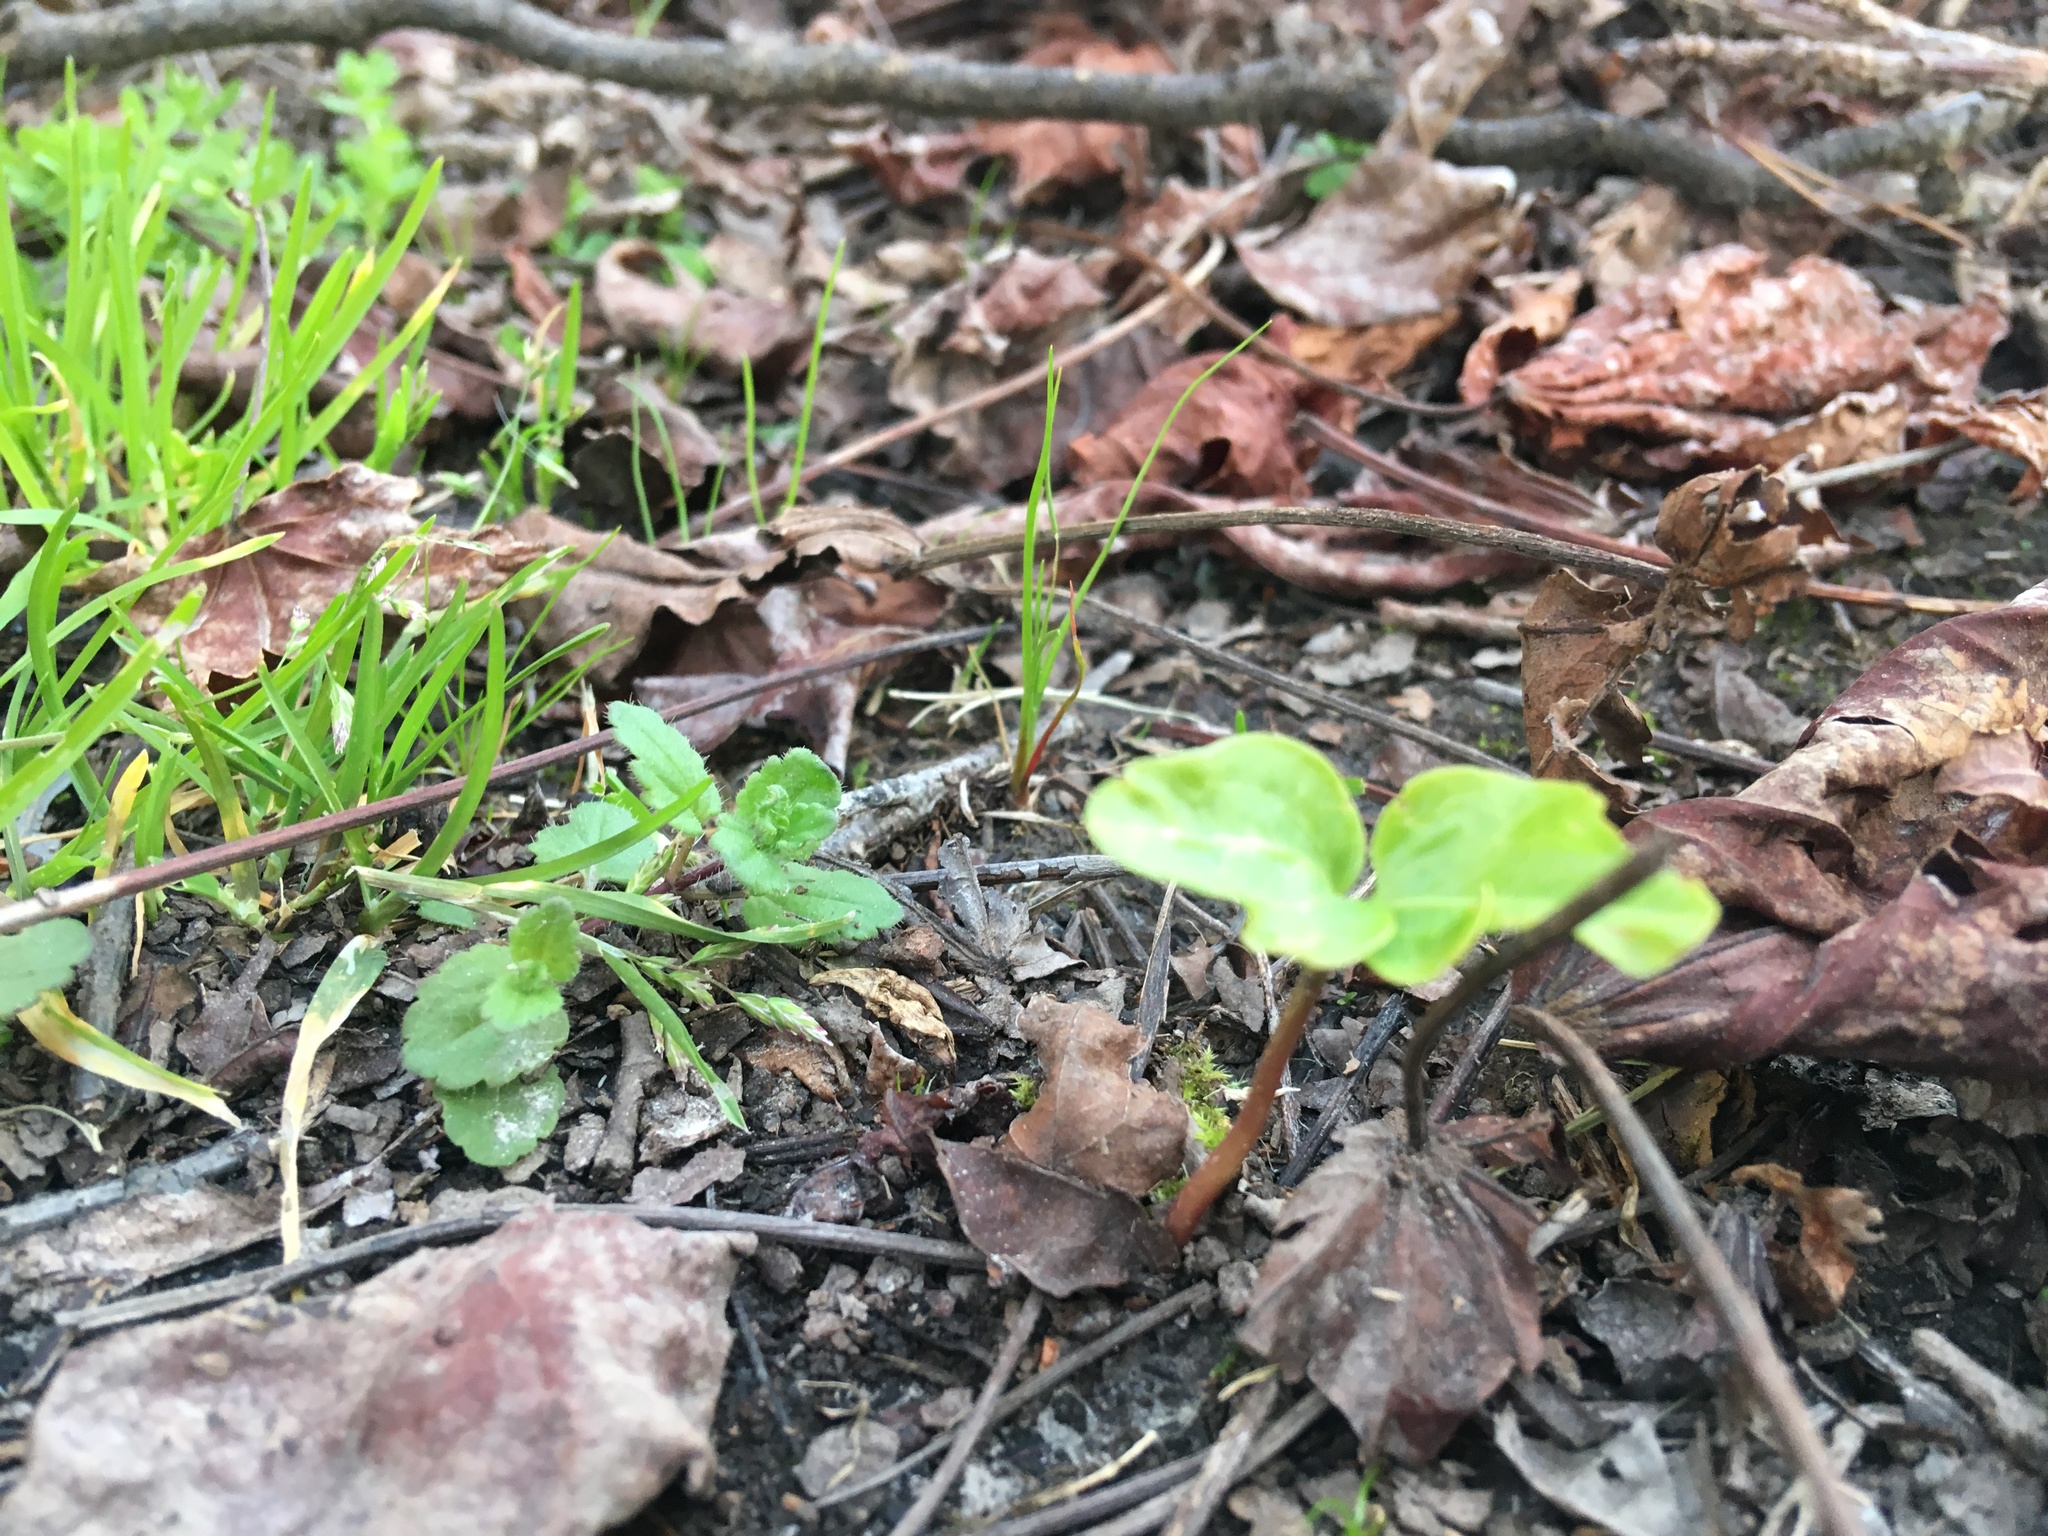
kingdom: Plantae
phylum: Tracheophyta
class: Magnoliopsida
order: Apiales
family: Araliaceae
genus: Hedera
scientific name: Hedera helix
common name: Ivy
